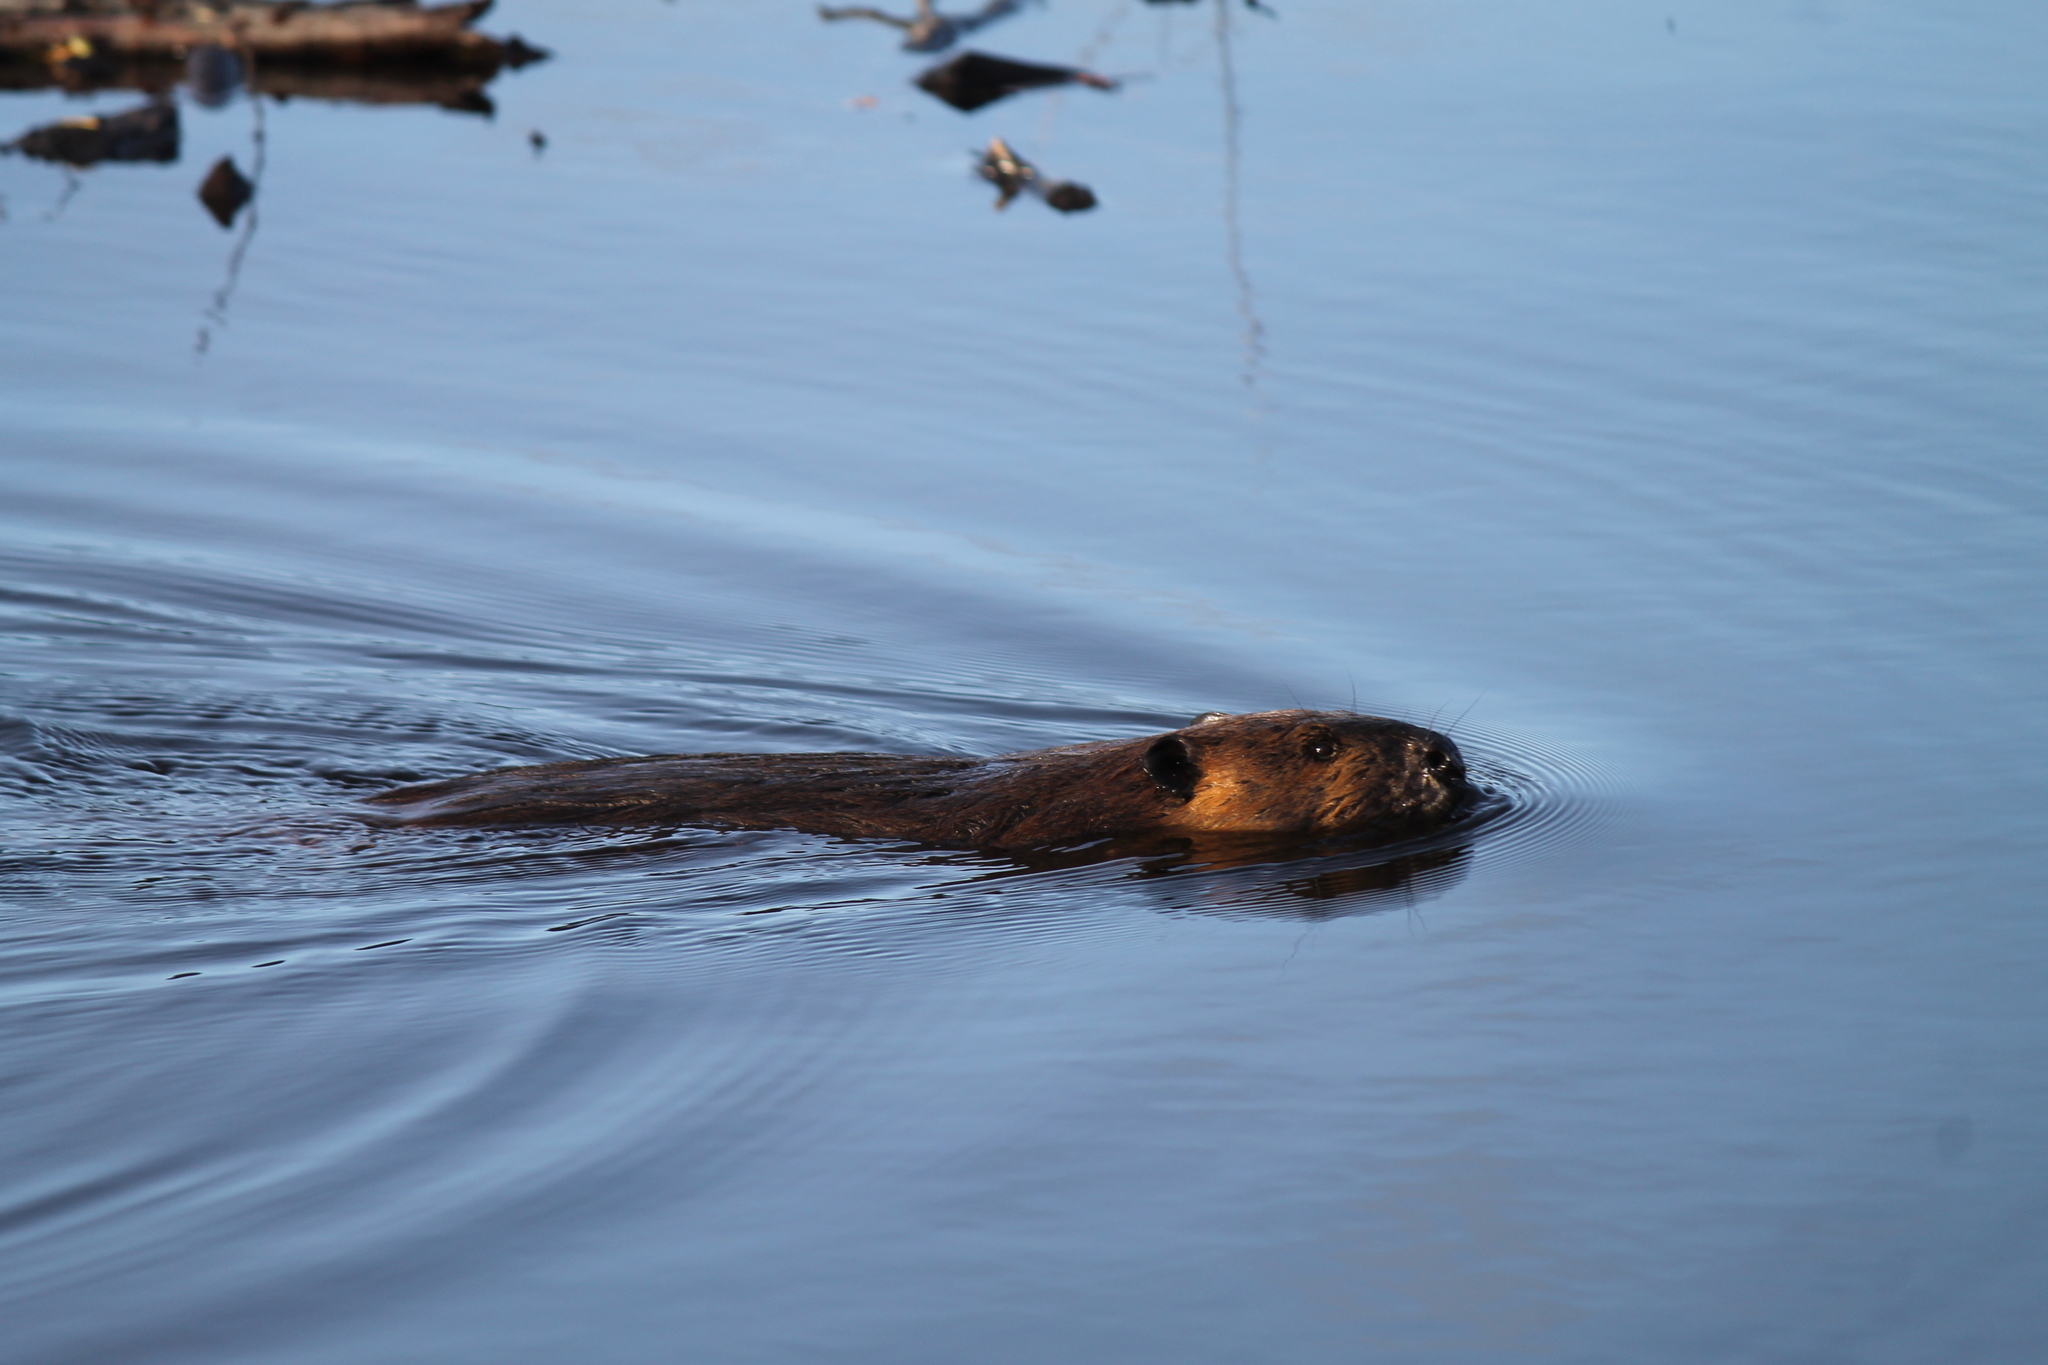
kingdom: Animalia
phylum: Chordata
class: Mammalia
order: Rodentia
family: Castoridae
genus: Castor
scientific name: Castor canadensis
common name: American beaver
